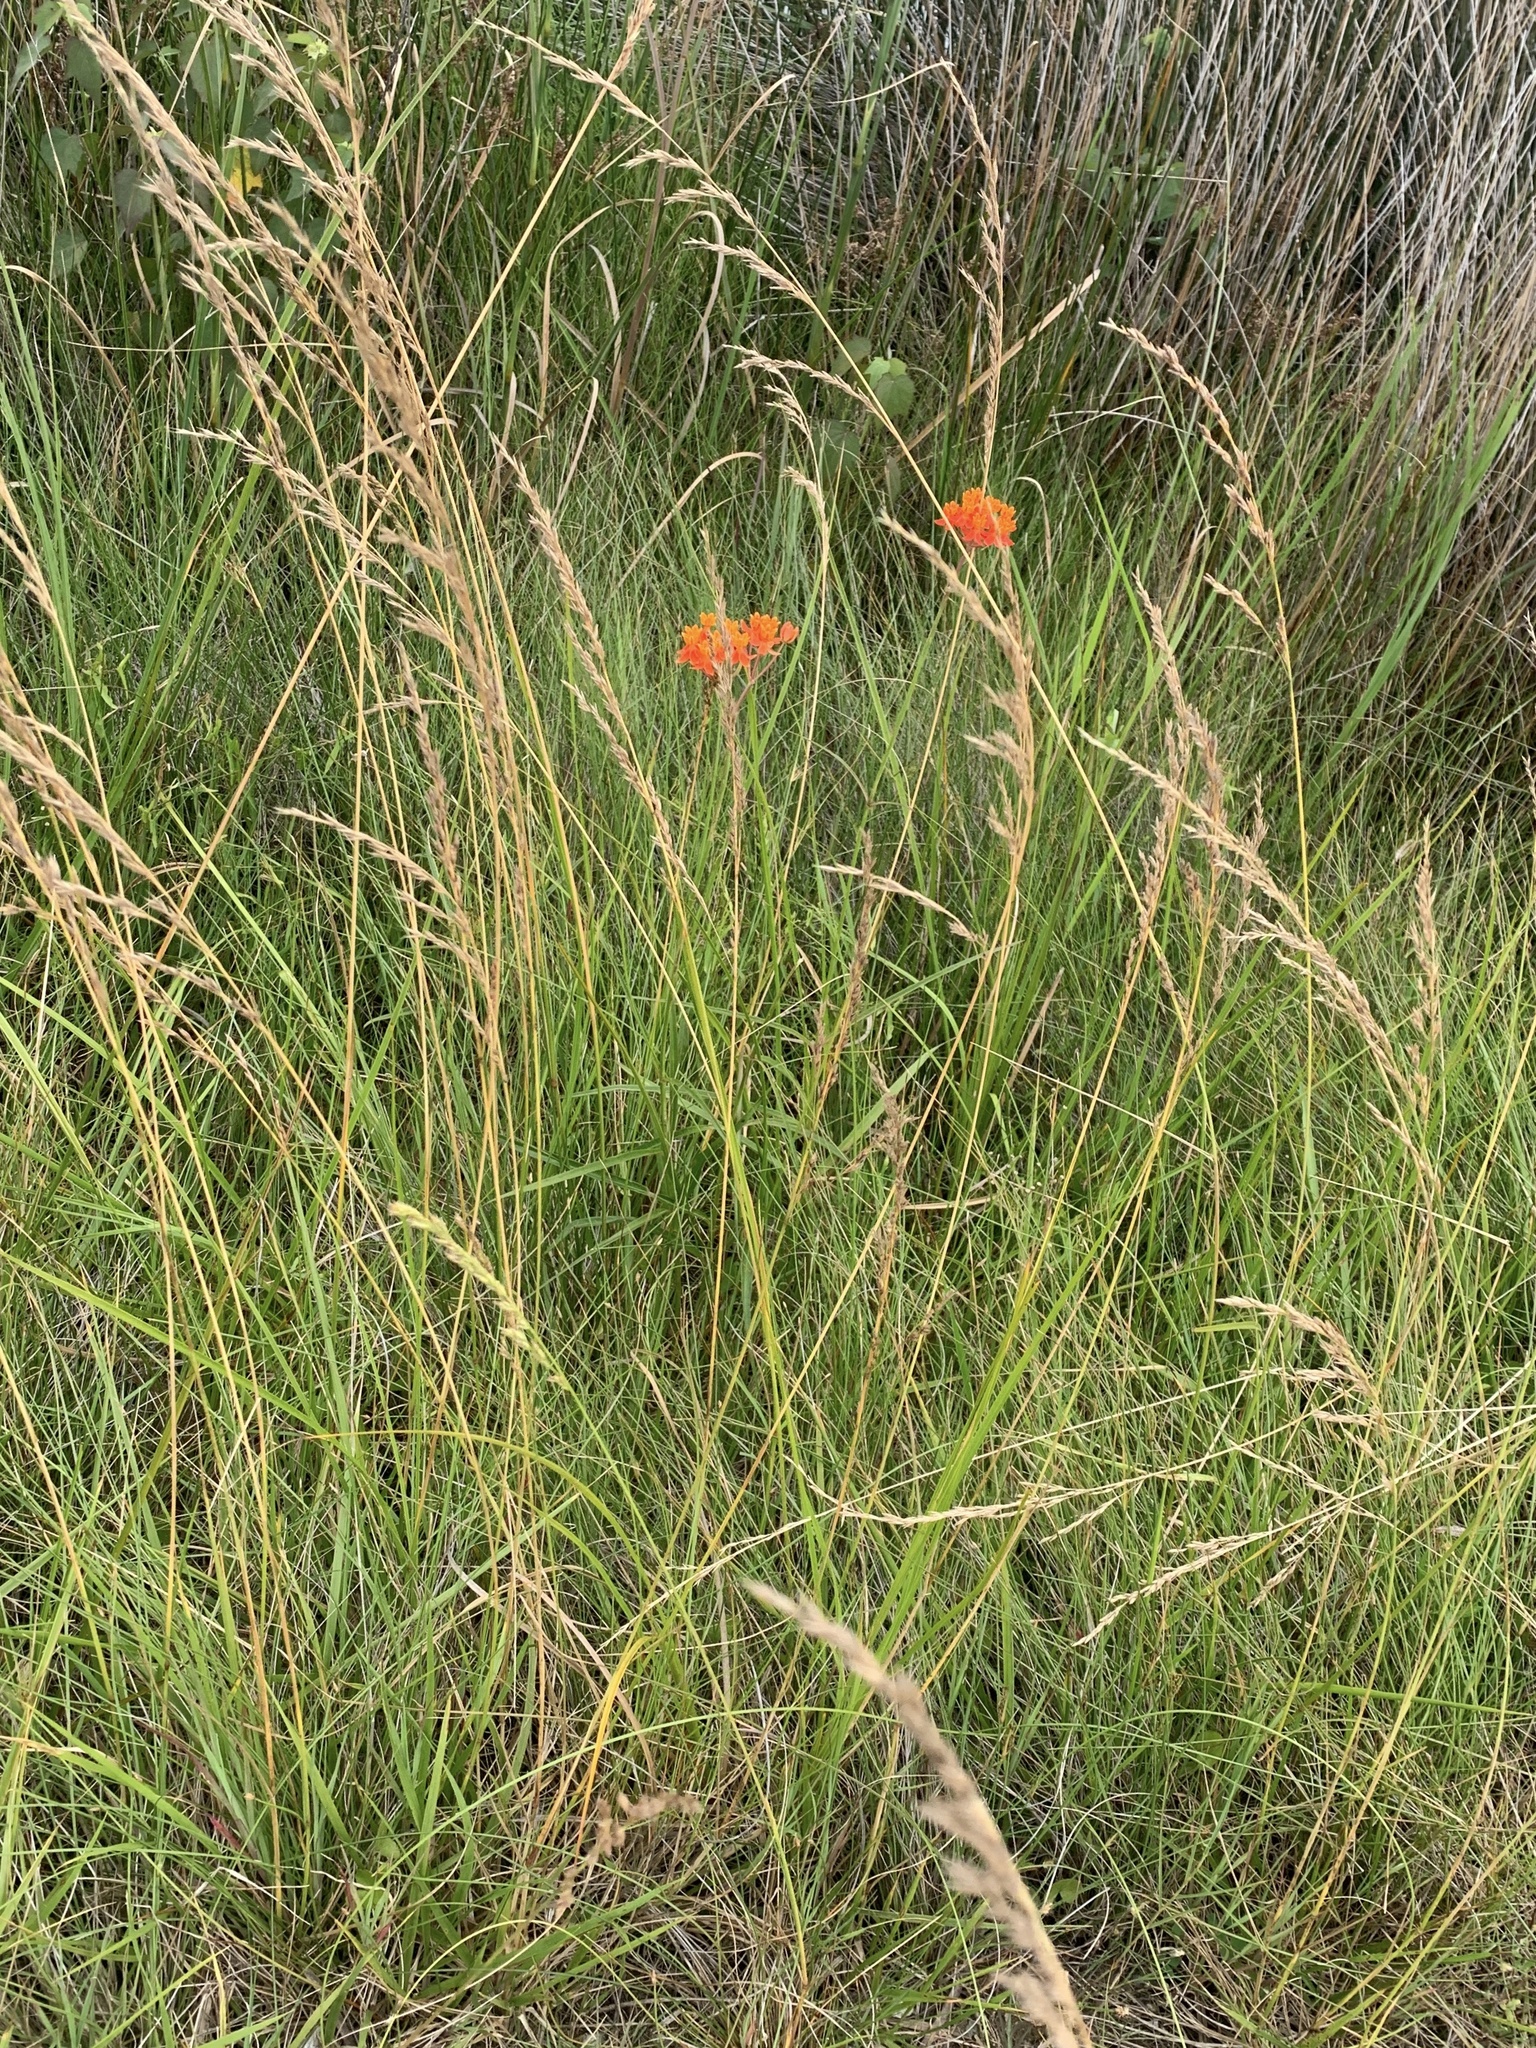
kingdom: Plantae
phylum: Tracheophyta
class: Magnoliopsida
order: Gentianales
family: Apocynaceae
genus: Asclepias
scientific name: Asclepias lanceolata
